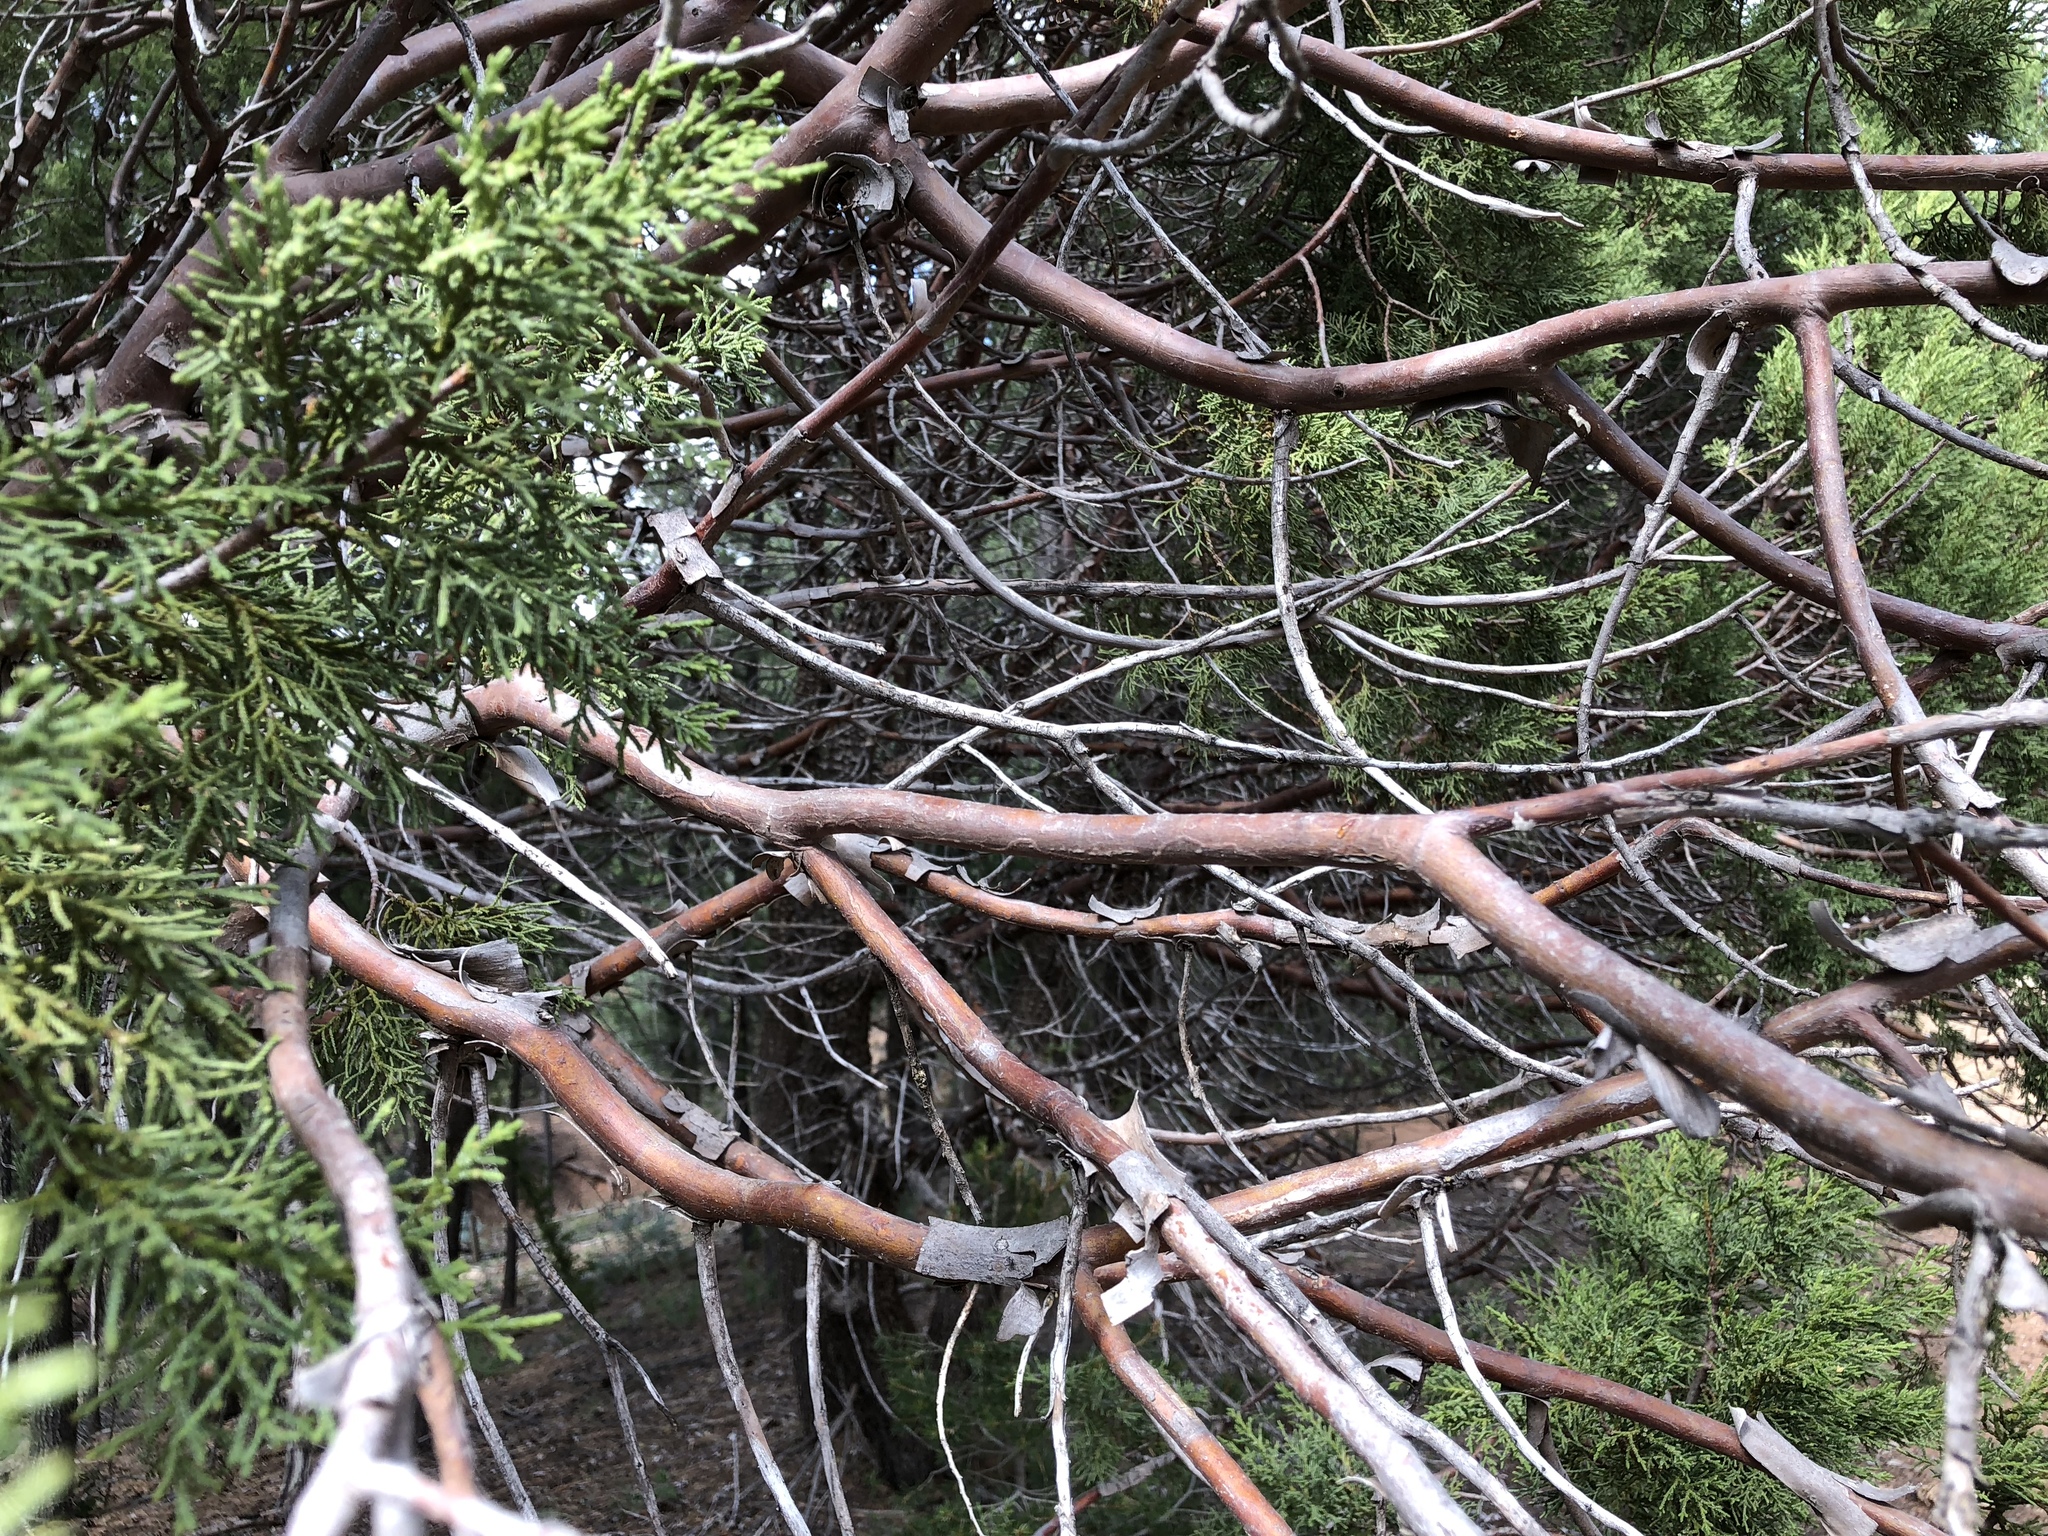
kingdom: Plantae
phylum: Tracheophyta
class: Pinopsida
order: Pinales
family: Cupressaceae
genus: Juniperus
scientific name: Juniperus deppeana
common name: Alligator juniper
